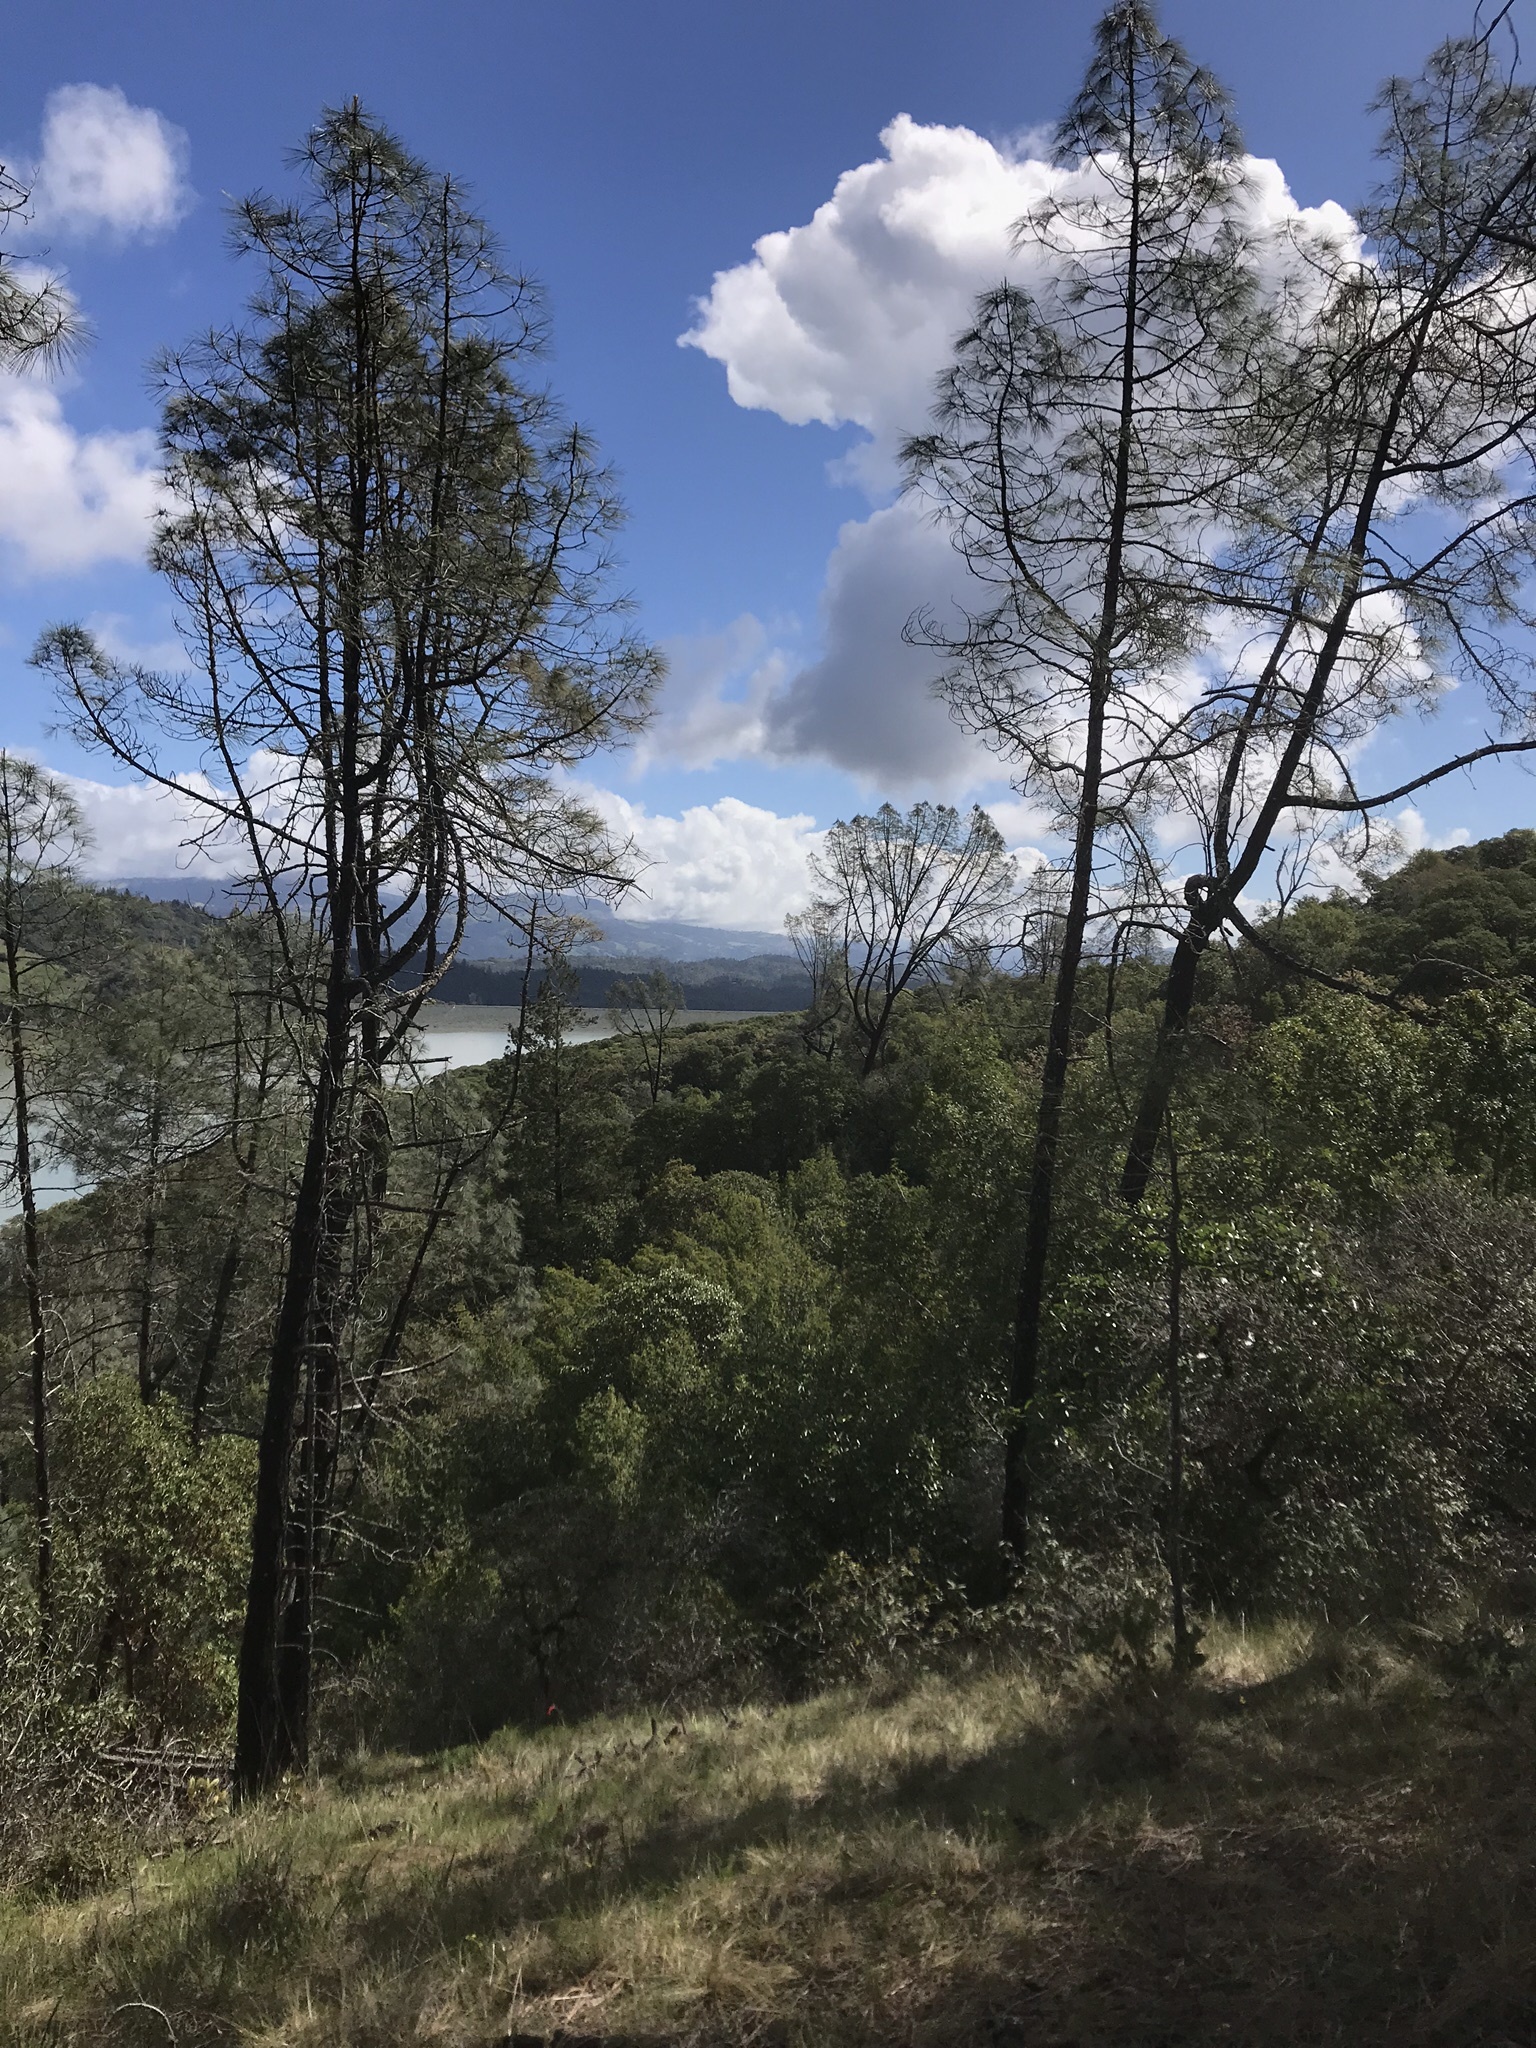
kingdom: Plantae
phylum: Tracheophyta
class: Pinopsida
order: Pinales
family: Pinaceae
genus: Pinus
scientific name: Pinus sabiniana
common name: Bull pine
